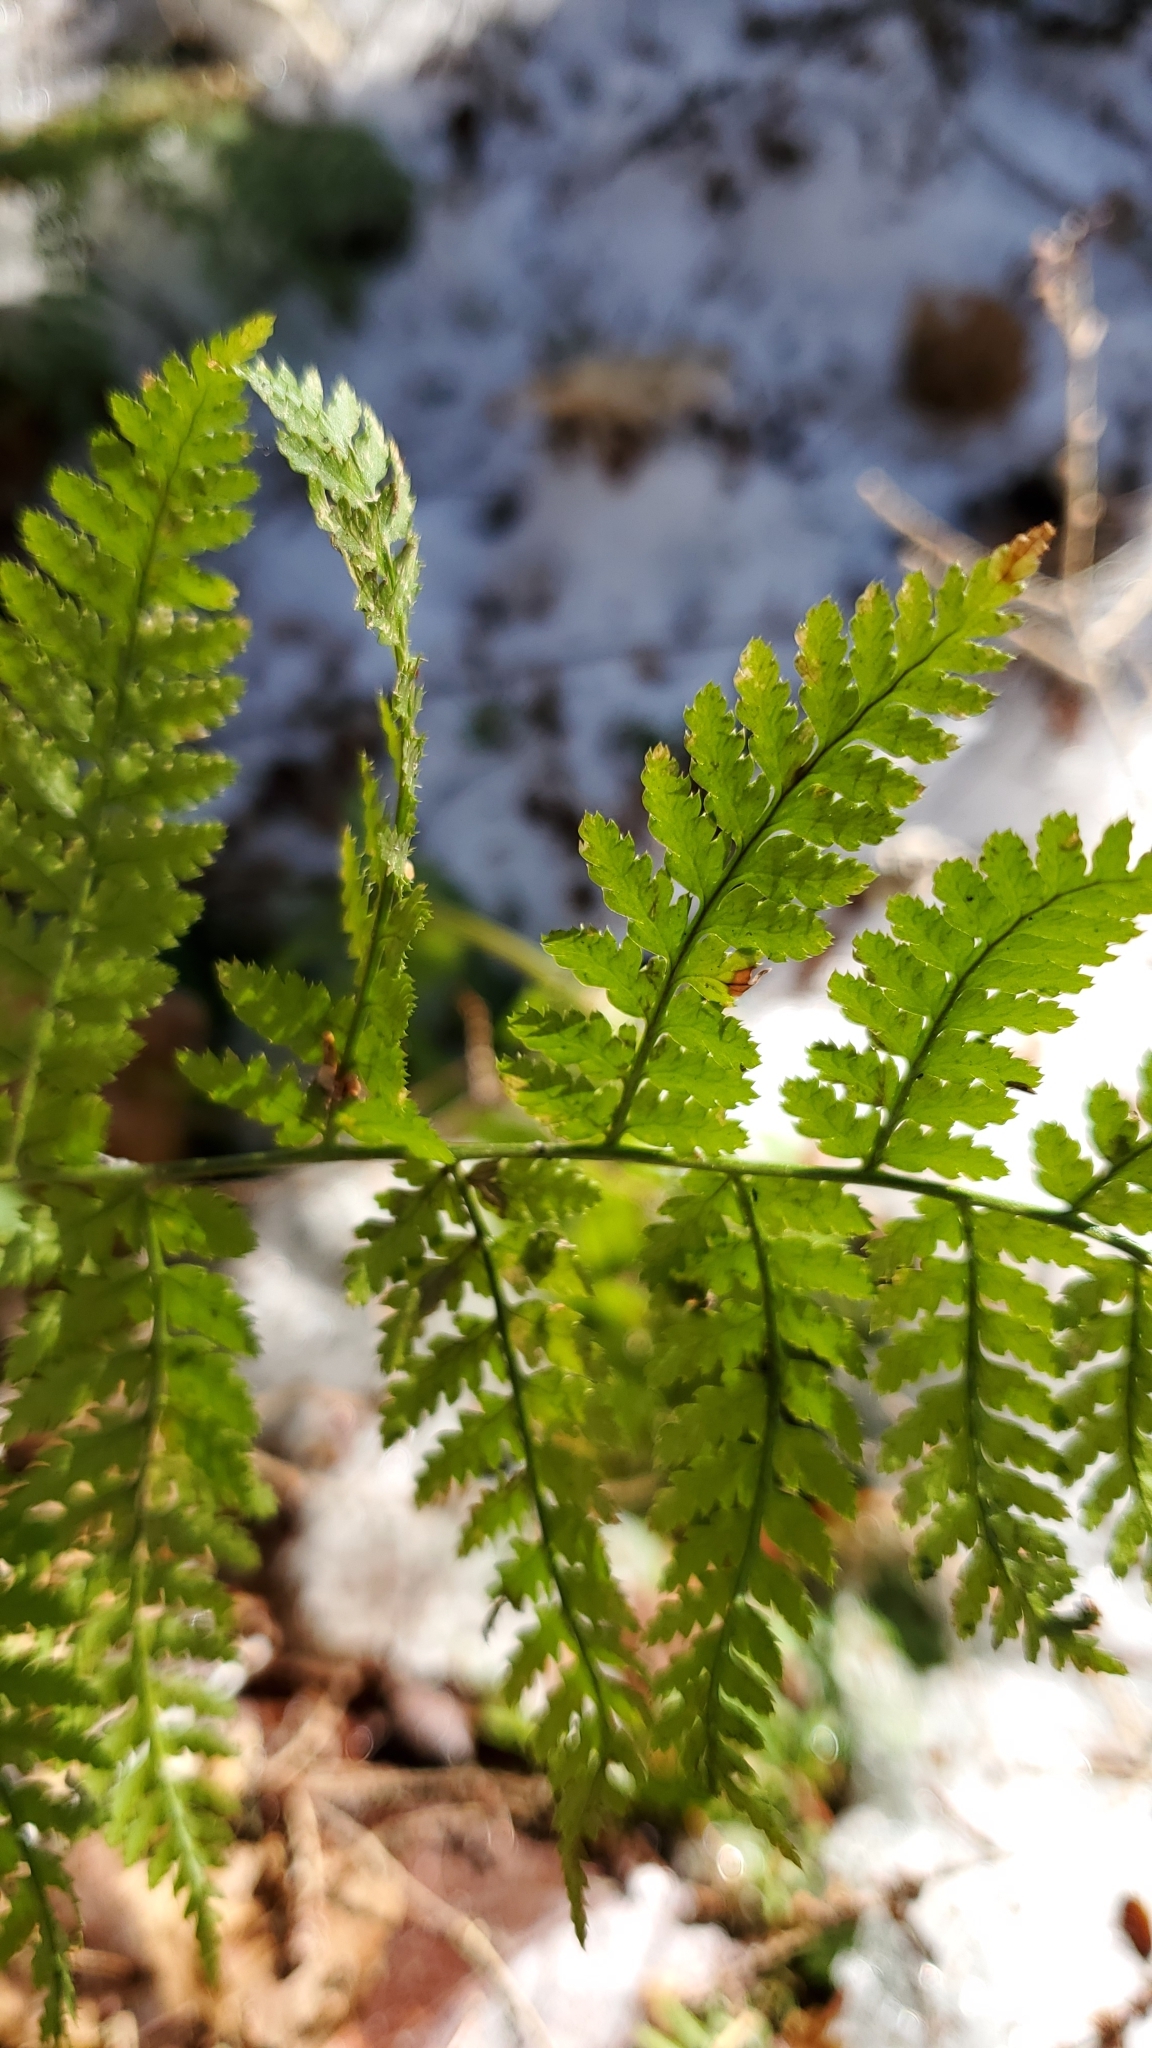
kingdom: Plantae
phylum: Tracheophyta
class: Polypodiopsida
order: Polypodiales
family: Dryopteridaceae
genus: Dryopteris
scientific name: Dryopteris intermedia
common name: Evergreen wood fern
